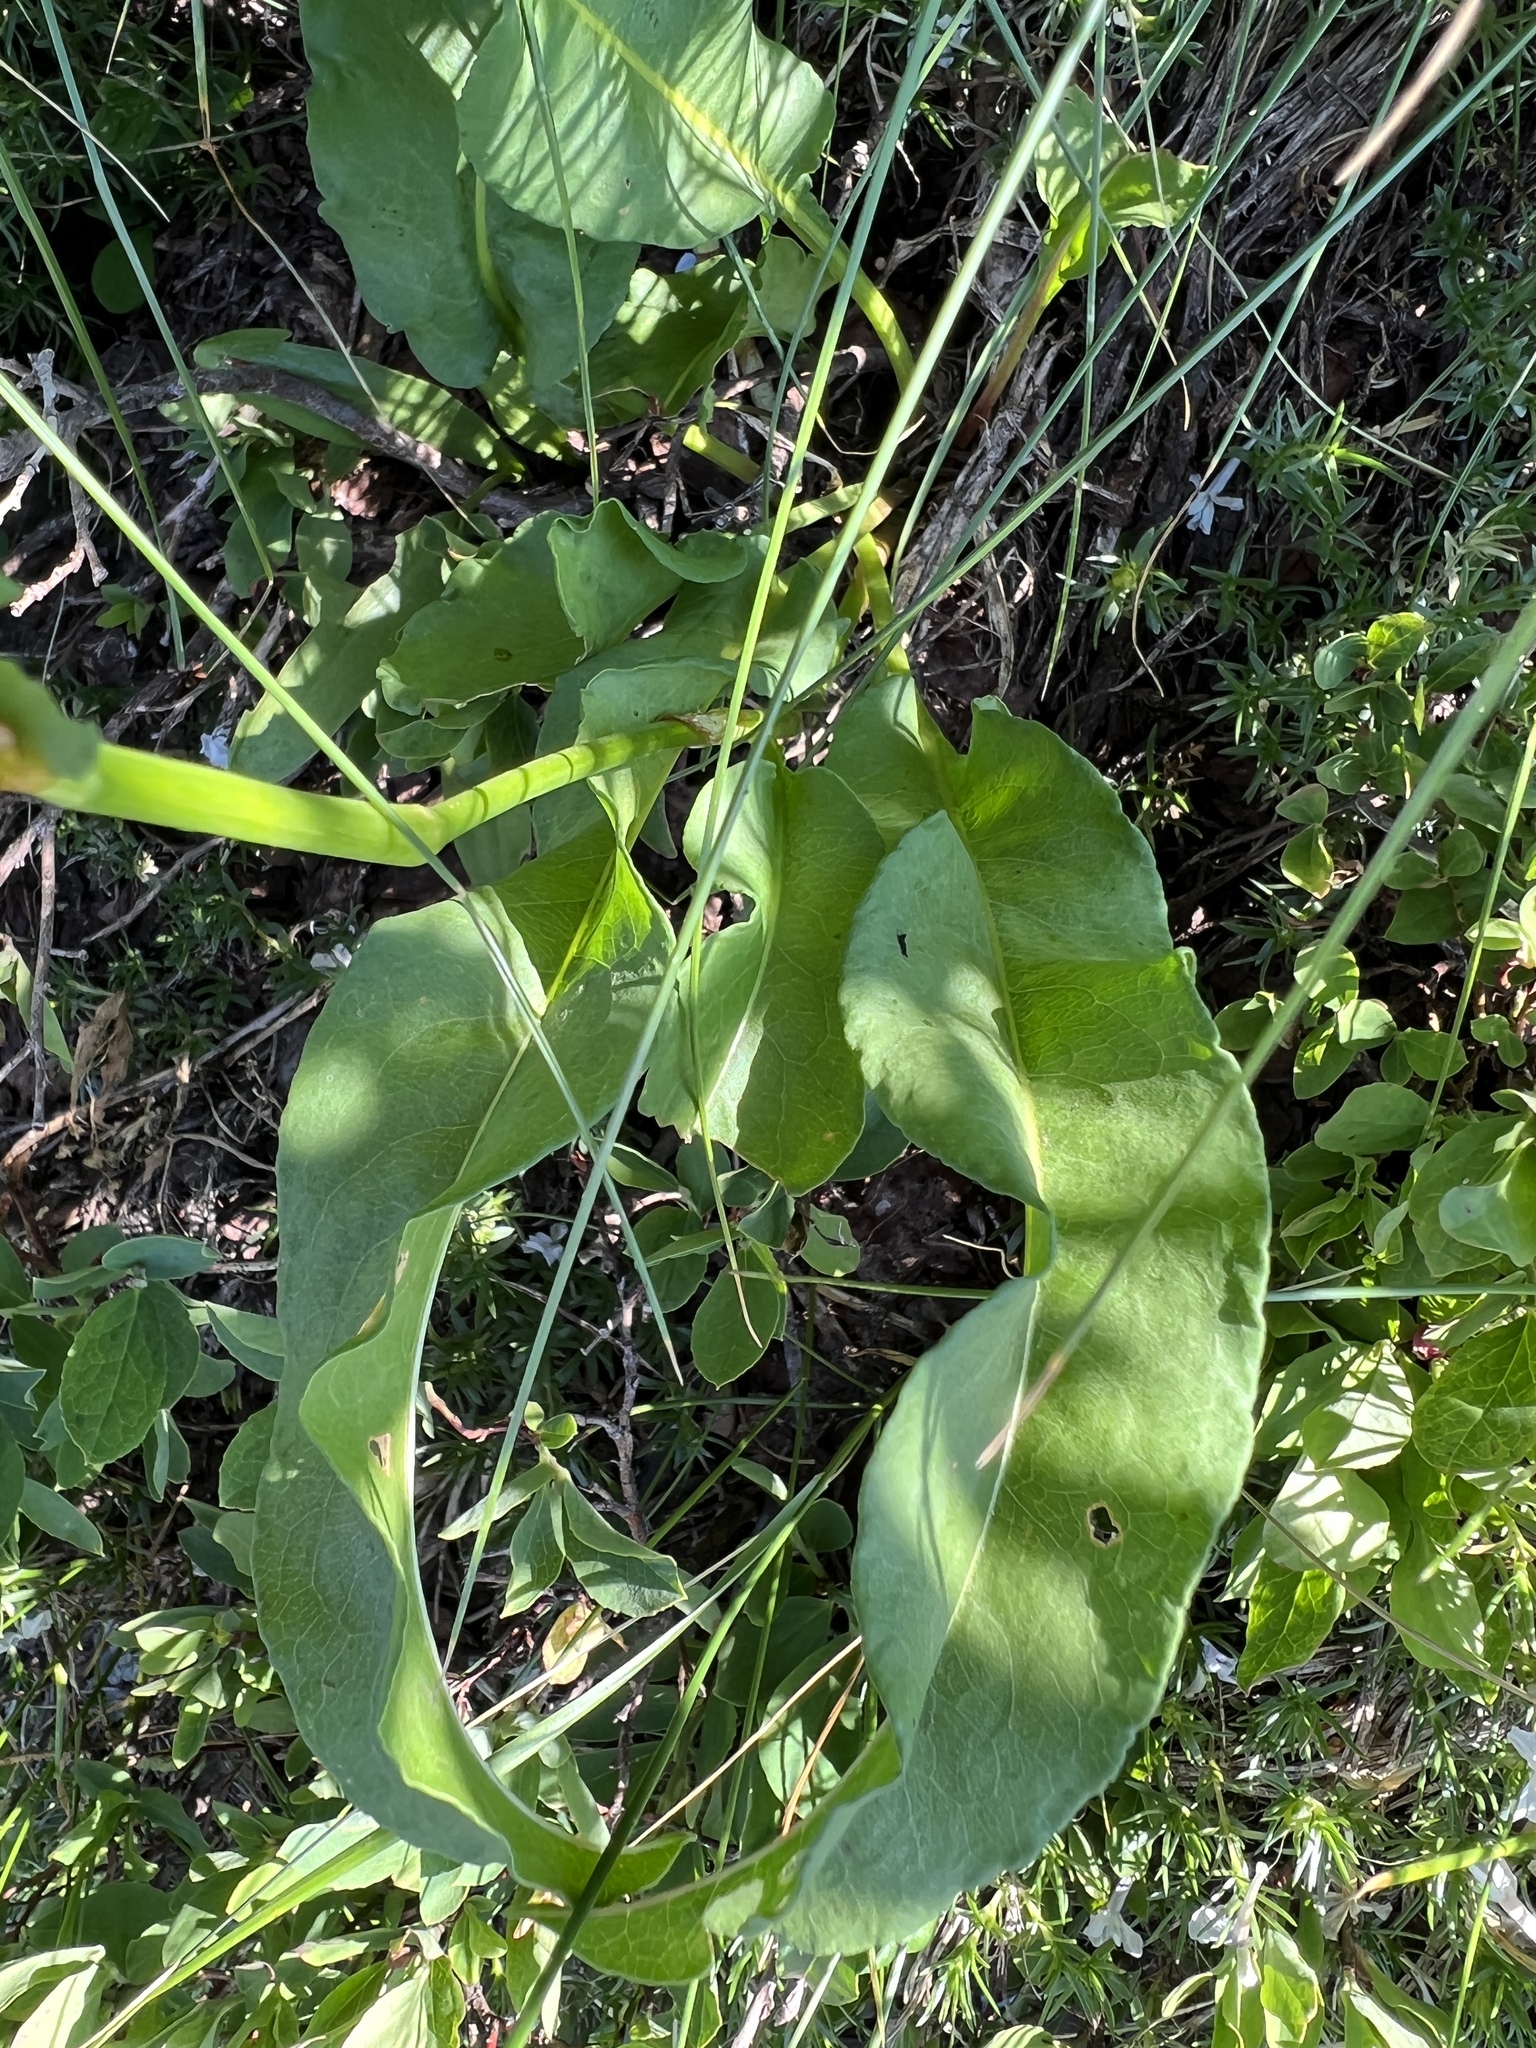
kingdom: Plantae
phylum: Tracheophyta
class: Magnoliopsida
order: Caryophyllales
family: Polygonaceae
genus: Bistorta
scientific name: Bistorta bistortoides
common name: American bistort
